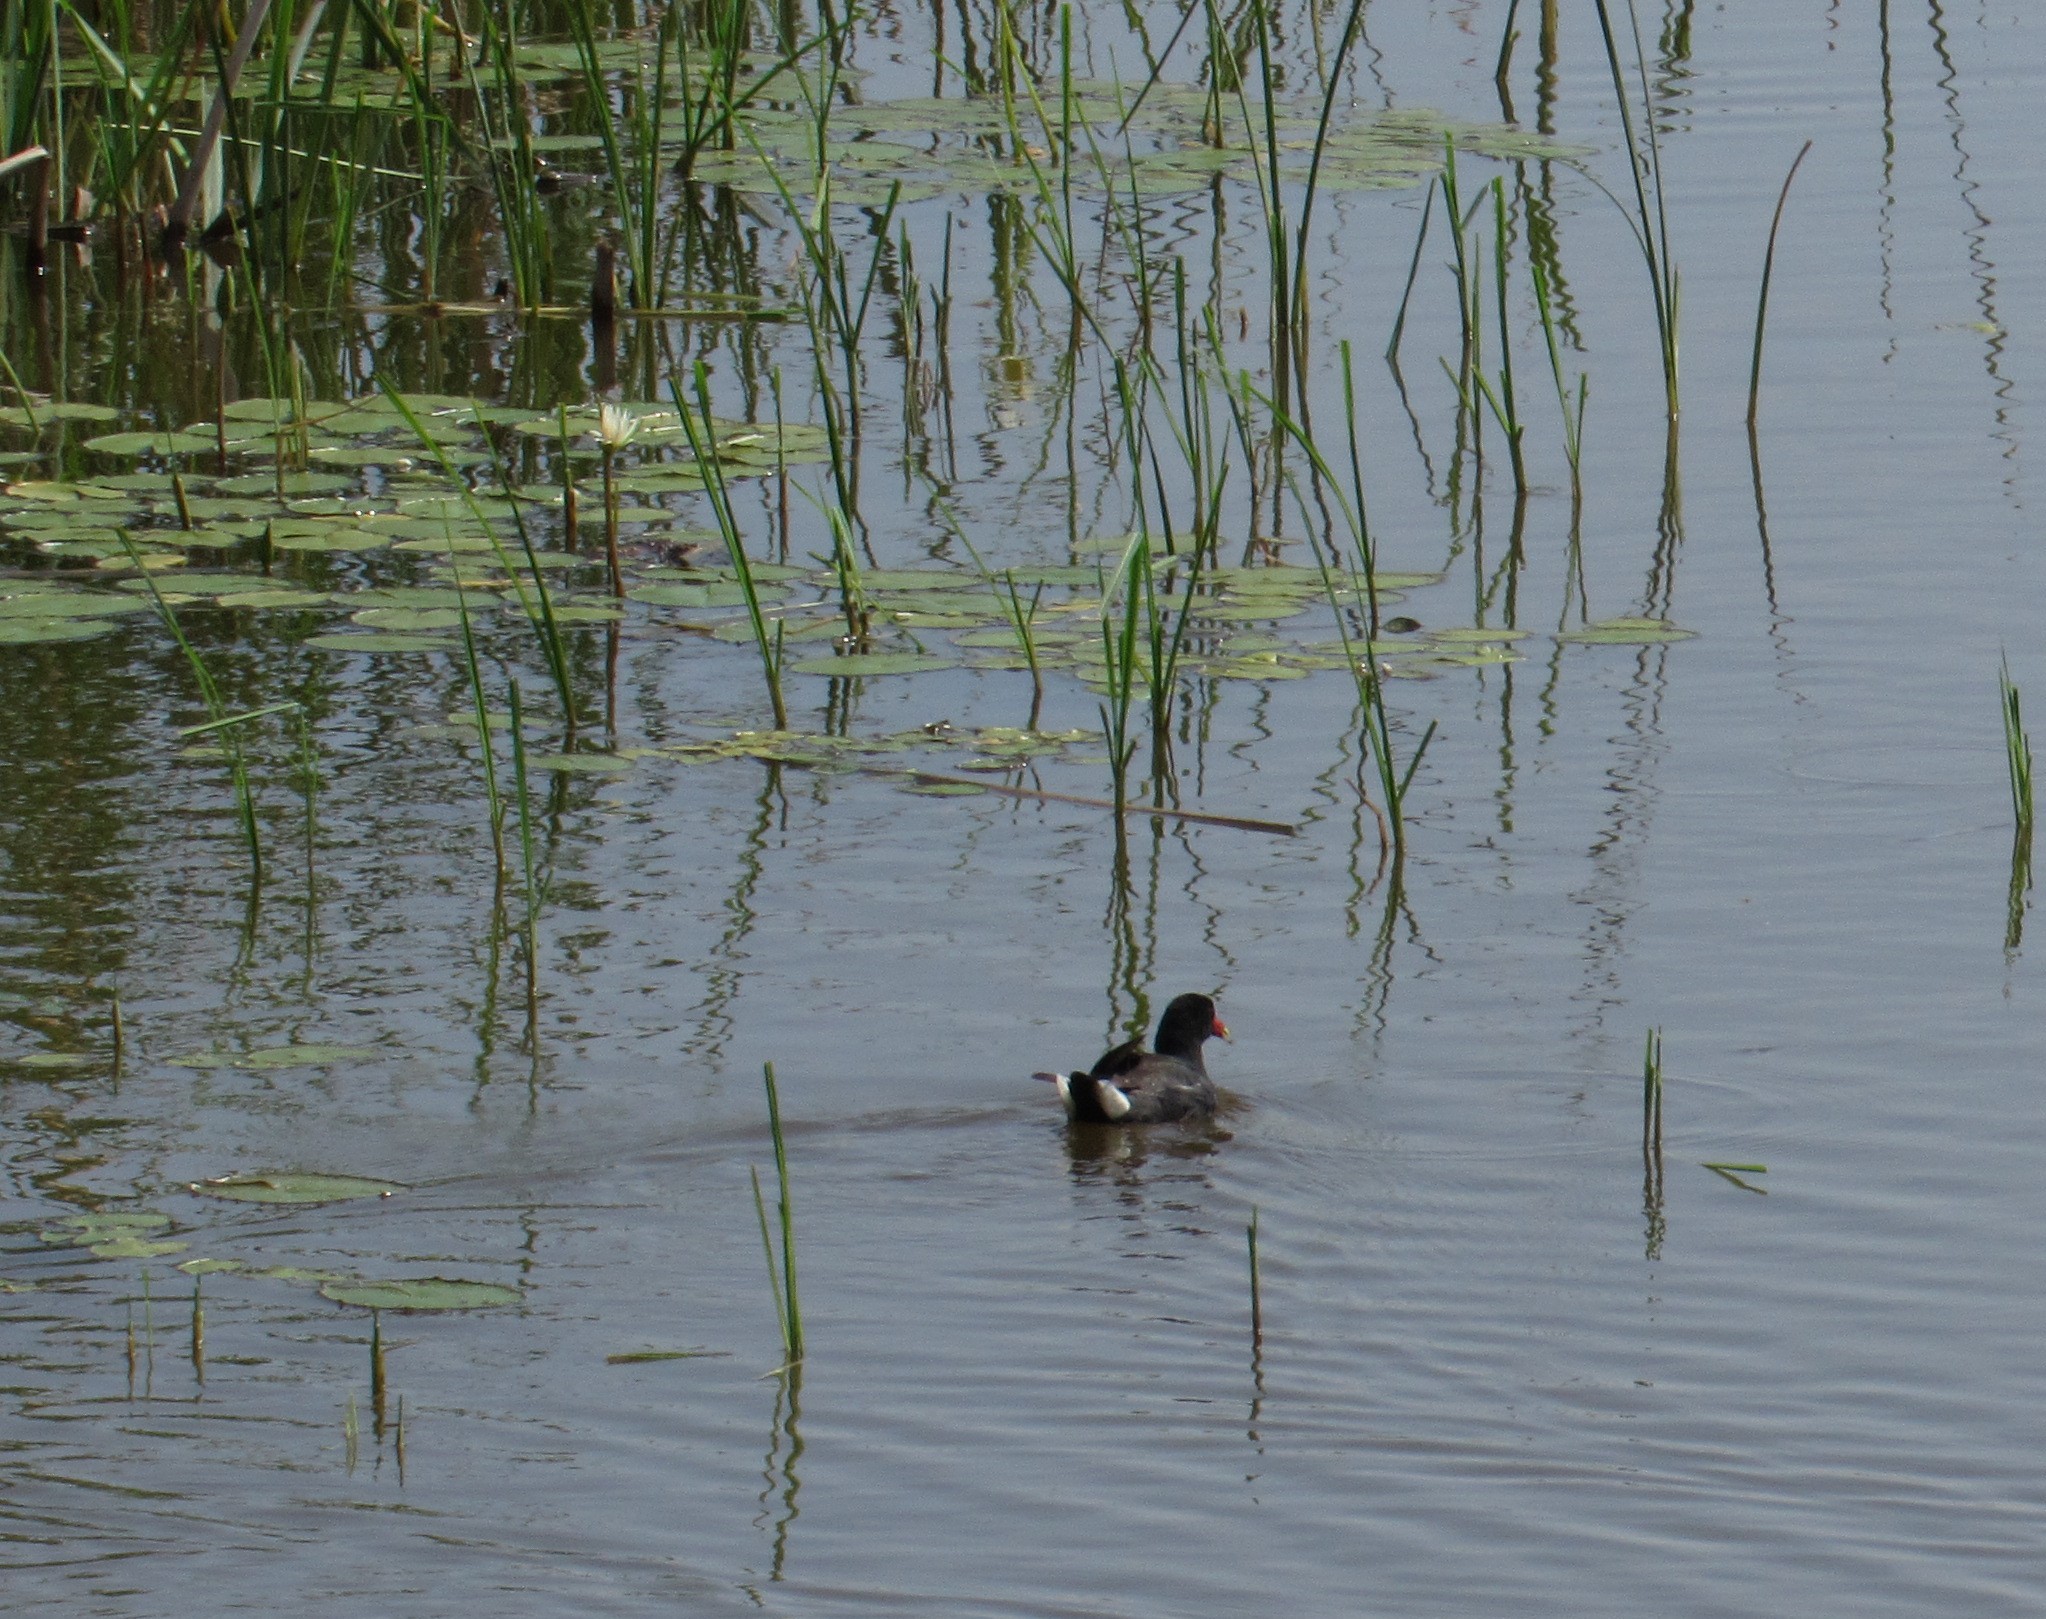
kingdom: Animalia
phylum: Chordata
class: Aves
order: Gruiformes
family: Rallidae
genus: Gallinula
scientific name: Gallinula chloropus
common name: Common moorhen
